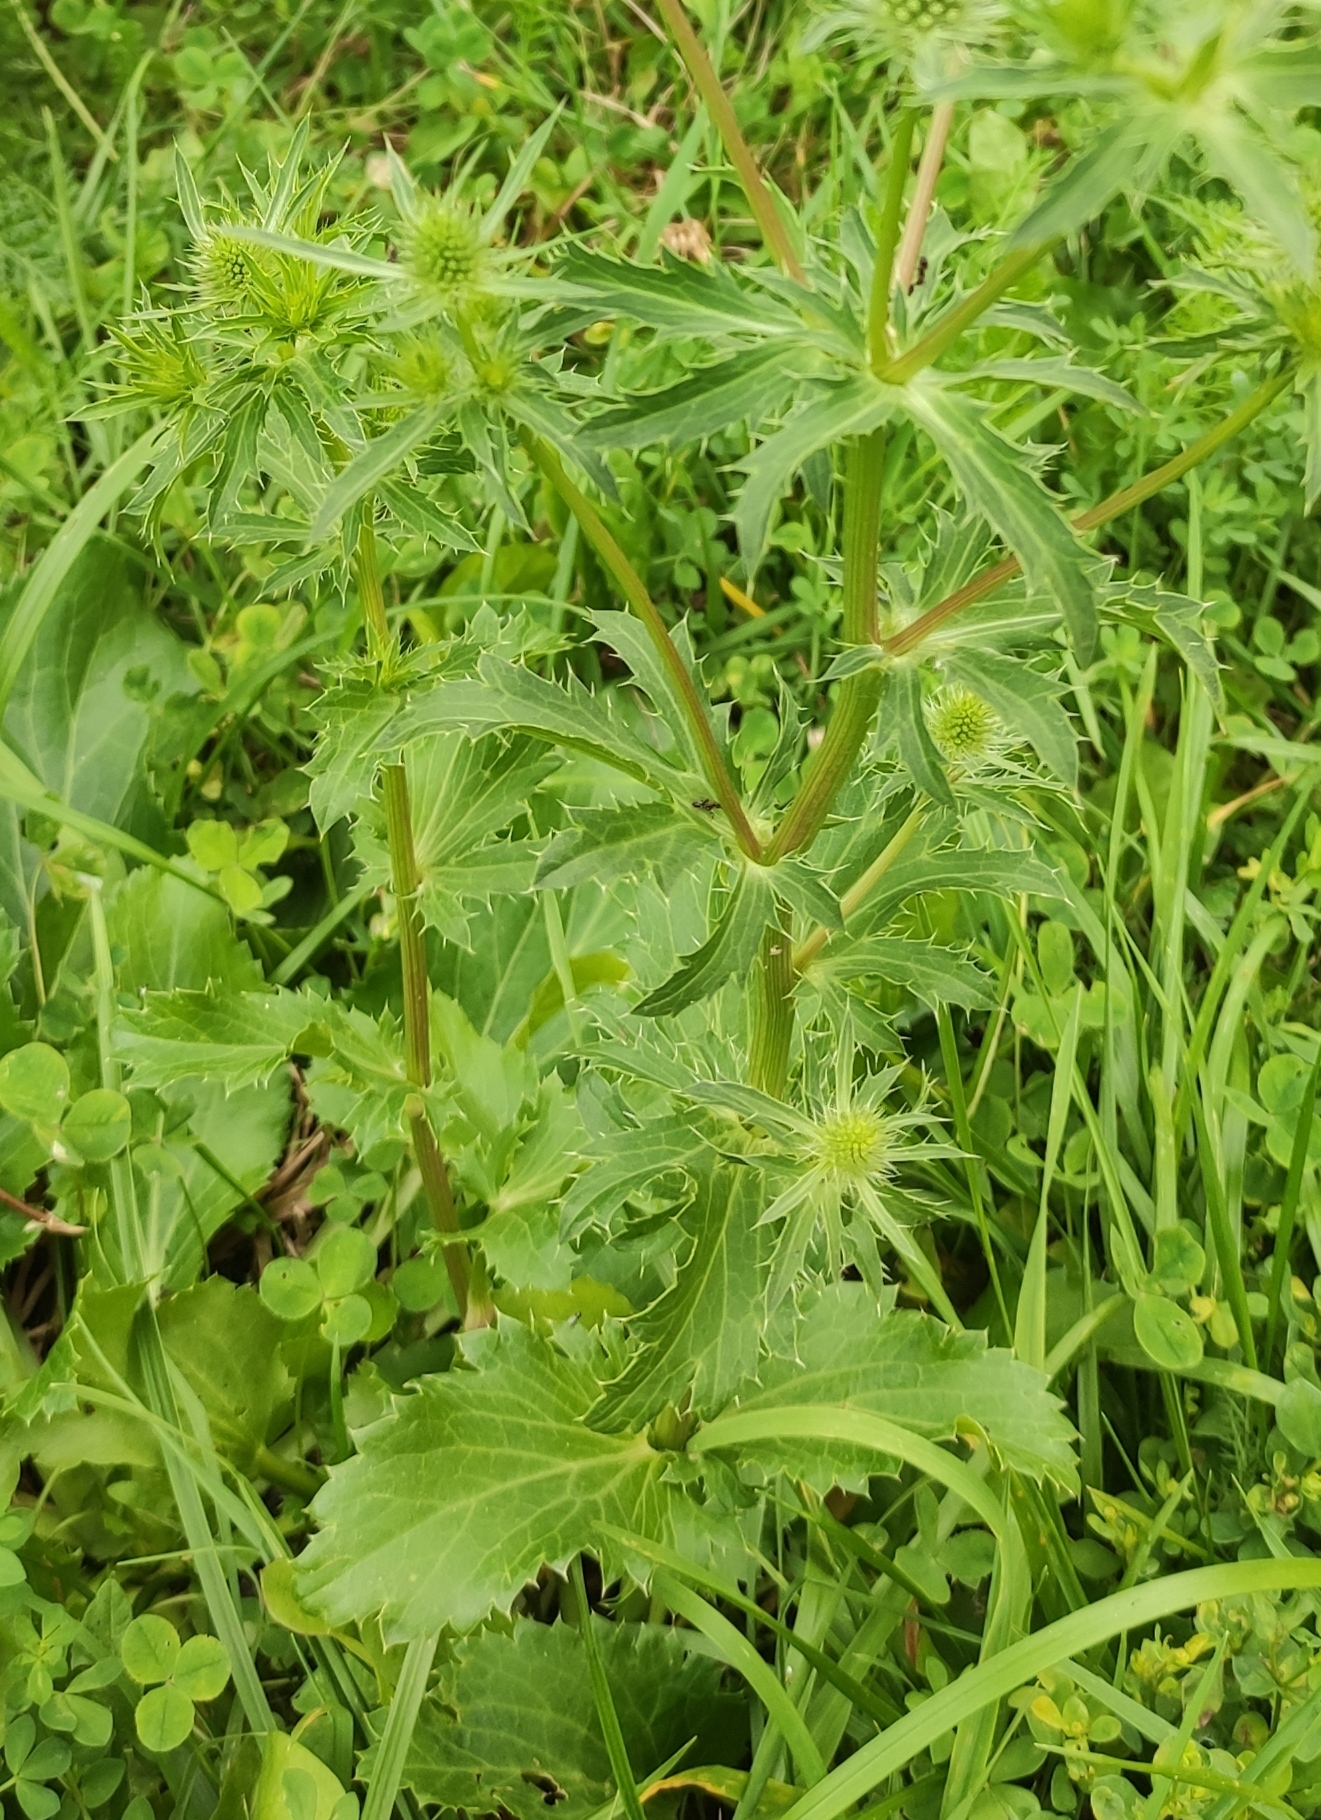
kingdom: Plantae
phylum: Tracheophyta
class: Magnoliopsida
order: Apiales
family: Apiaceae
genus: Eryngium
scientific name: Eryngium planum
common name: Blue eryngo
